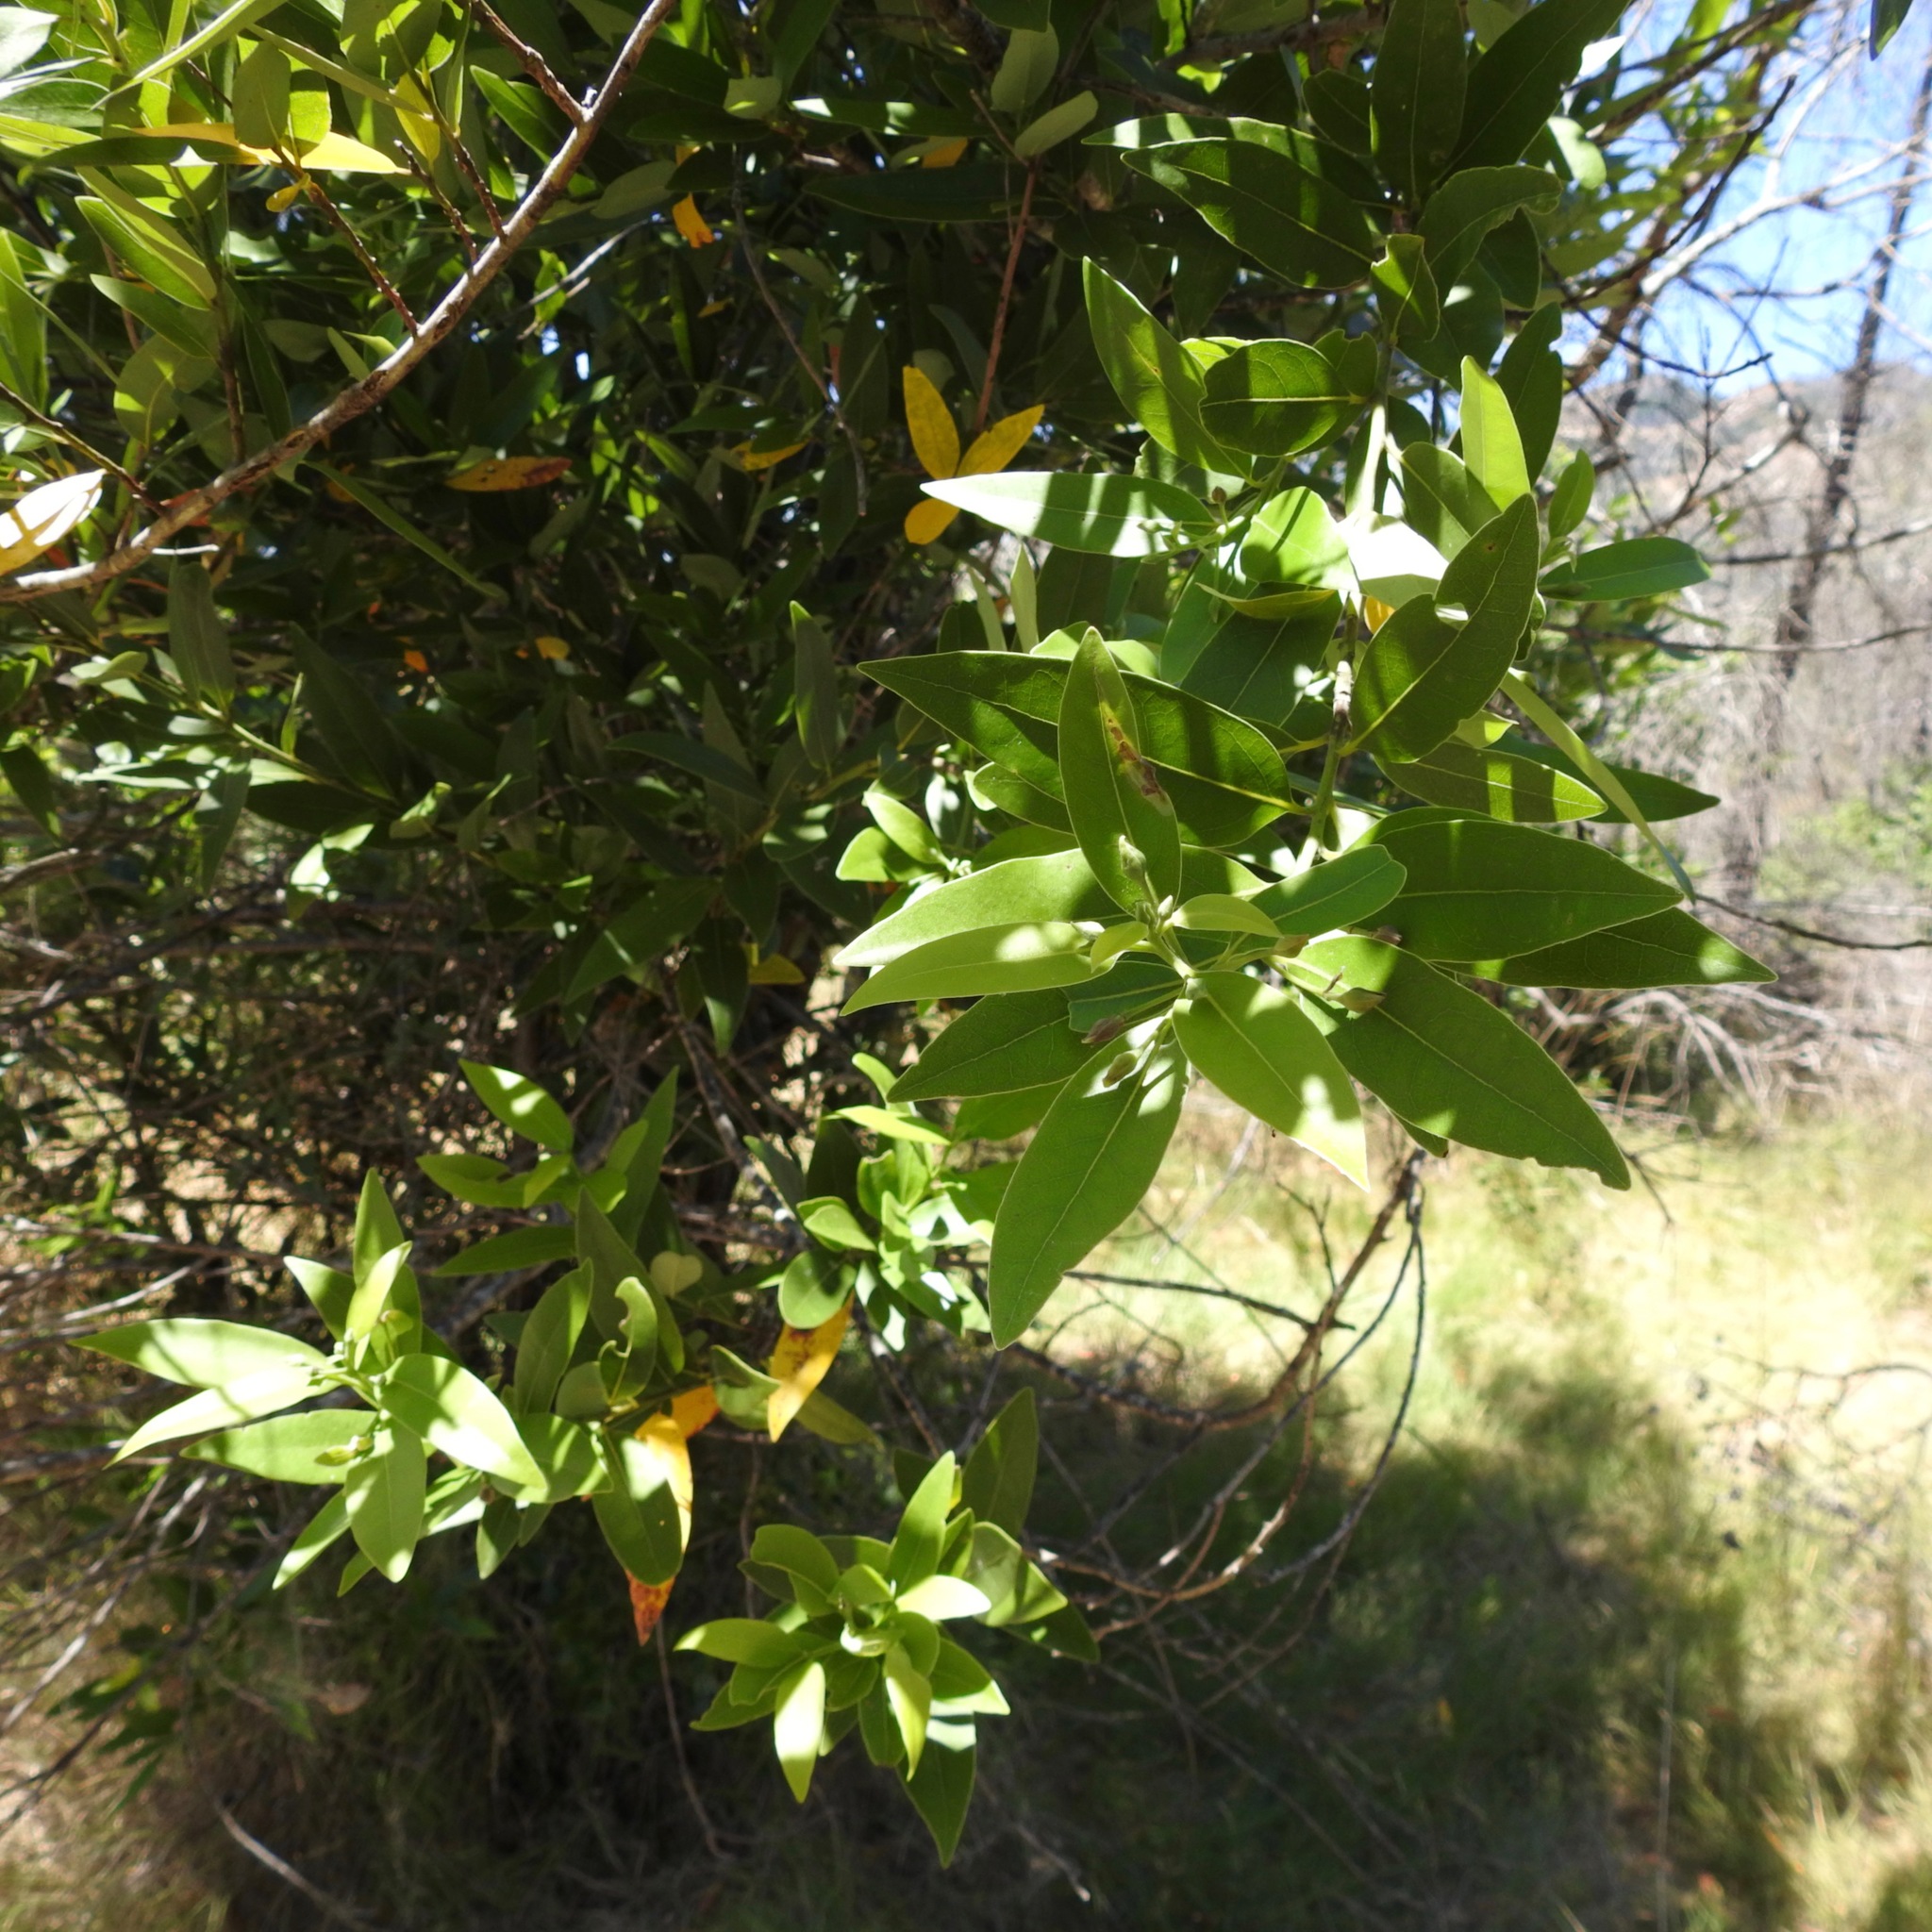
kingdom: Plantae
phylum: Tracheophyta
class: Magnoliopsida
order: Laurales
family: Lauraceae
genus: Umbellularia
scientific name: Umbellularia californica
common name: California bay
